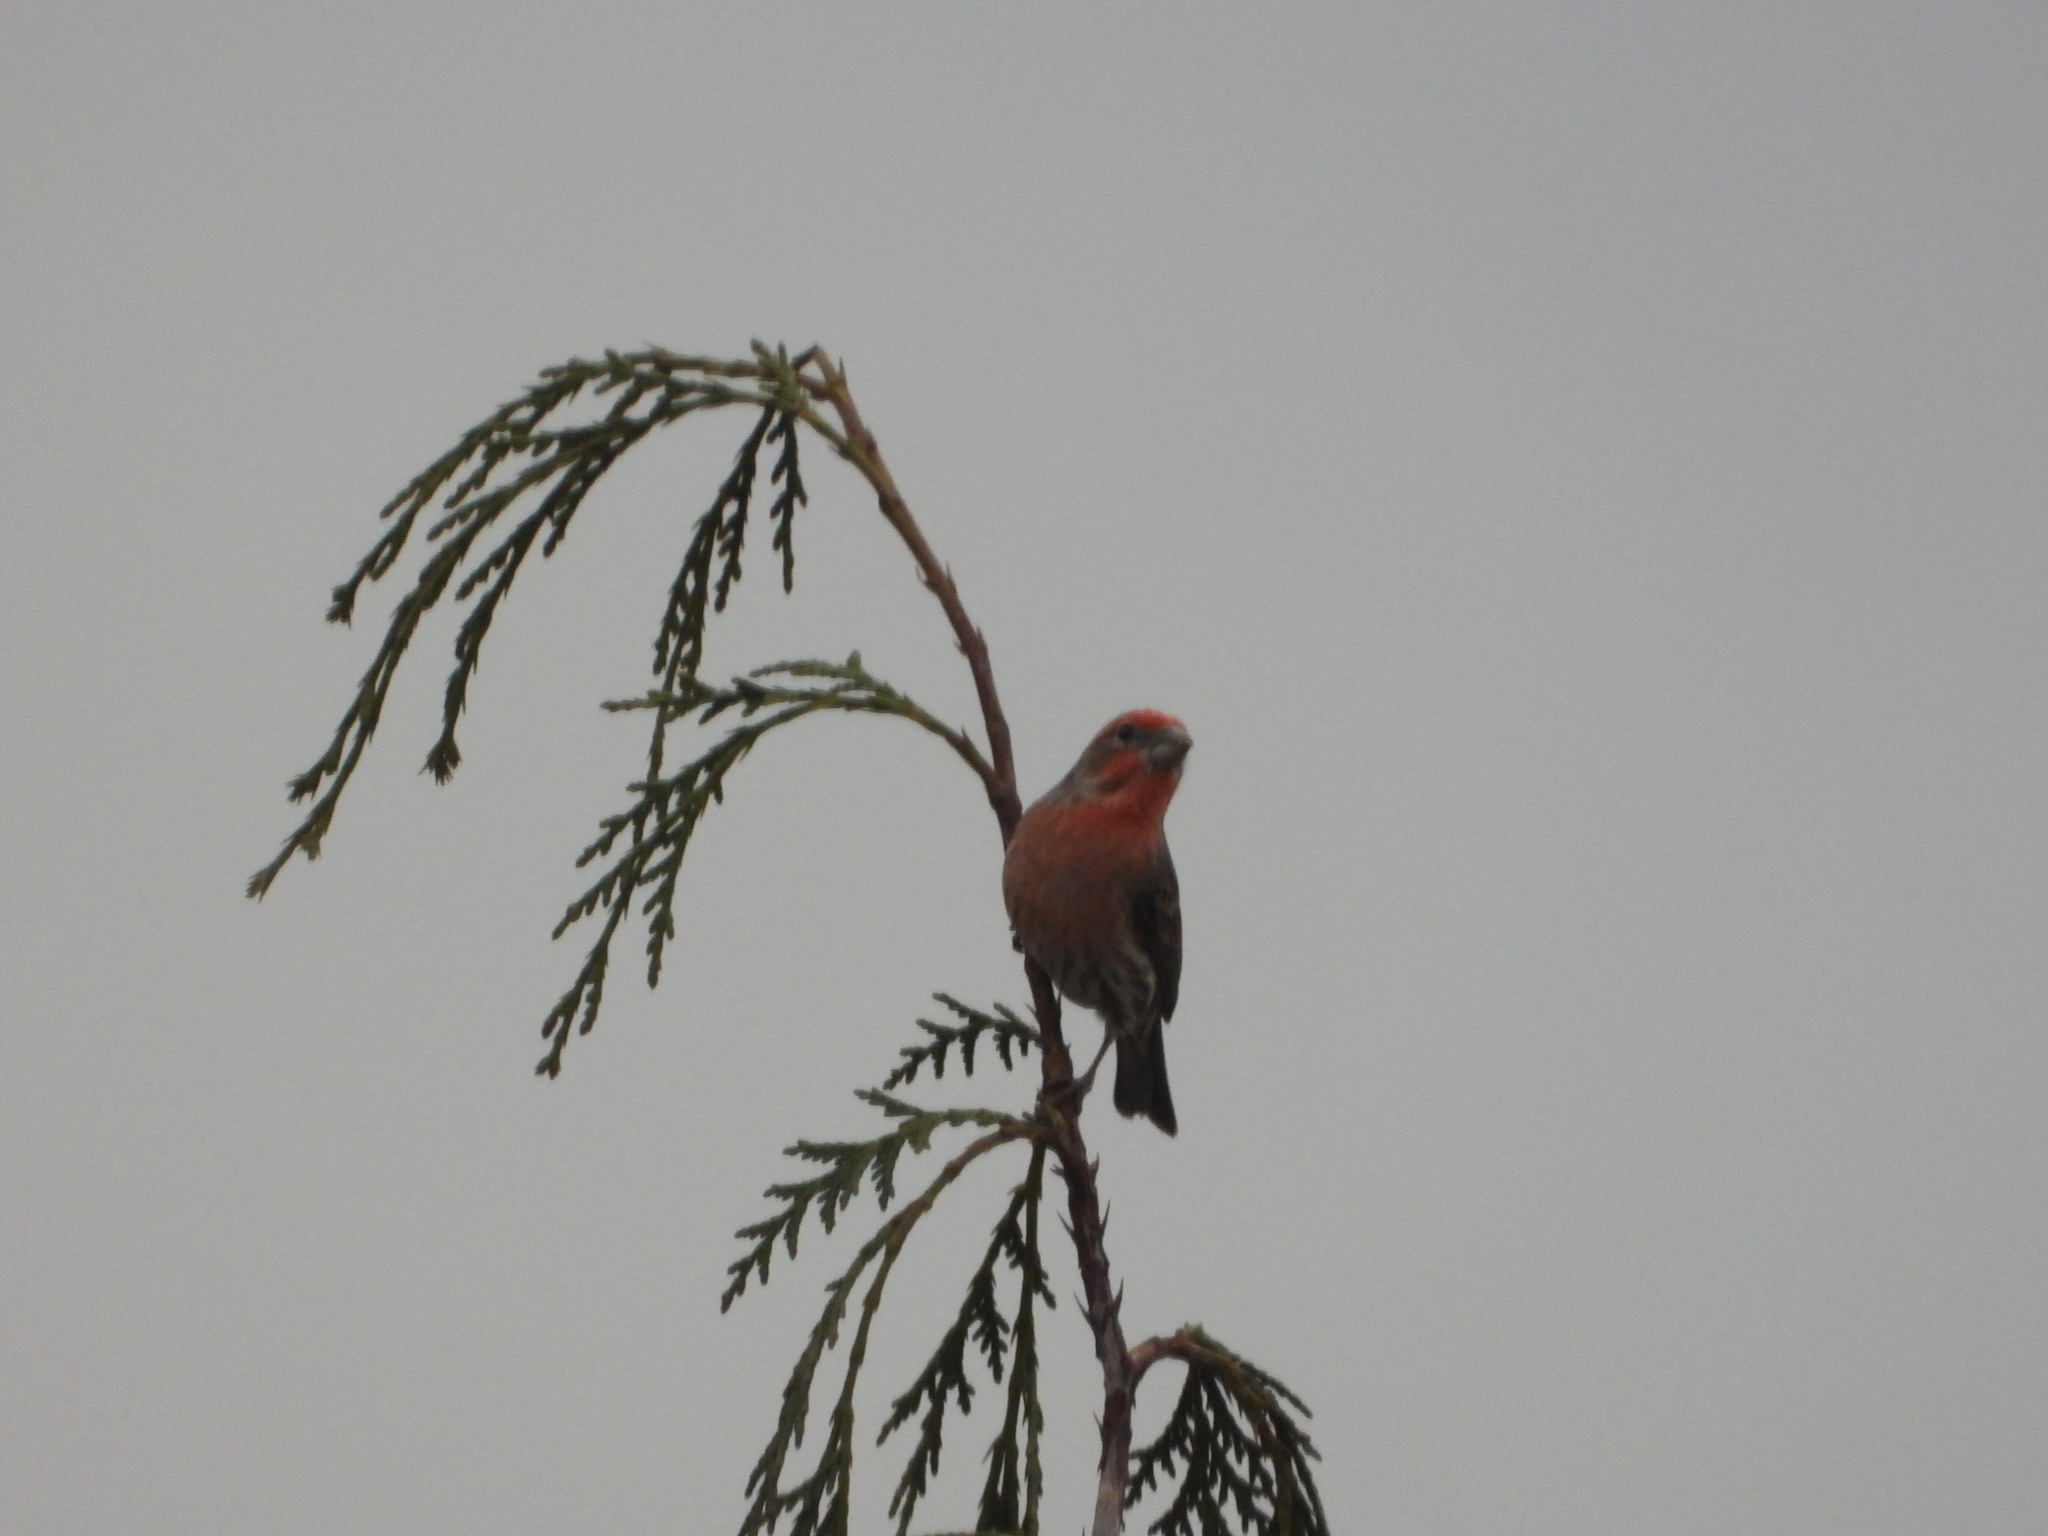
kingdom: Animalia
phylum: Chordata
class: Aves
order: Passeriformes
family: Fringillidae
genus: Haemorhous
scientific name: Haemorhous mexicanus
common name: House finch
